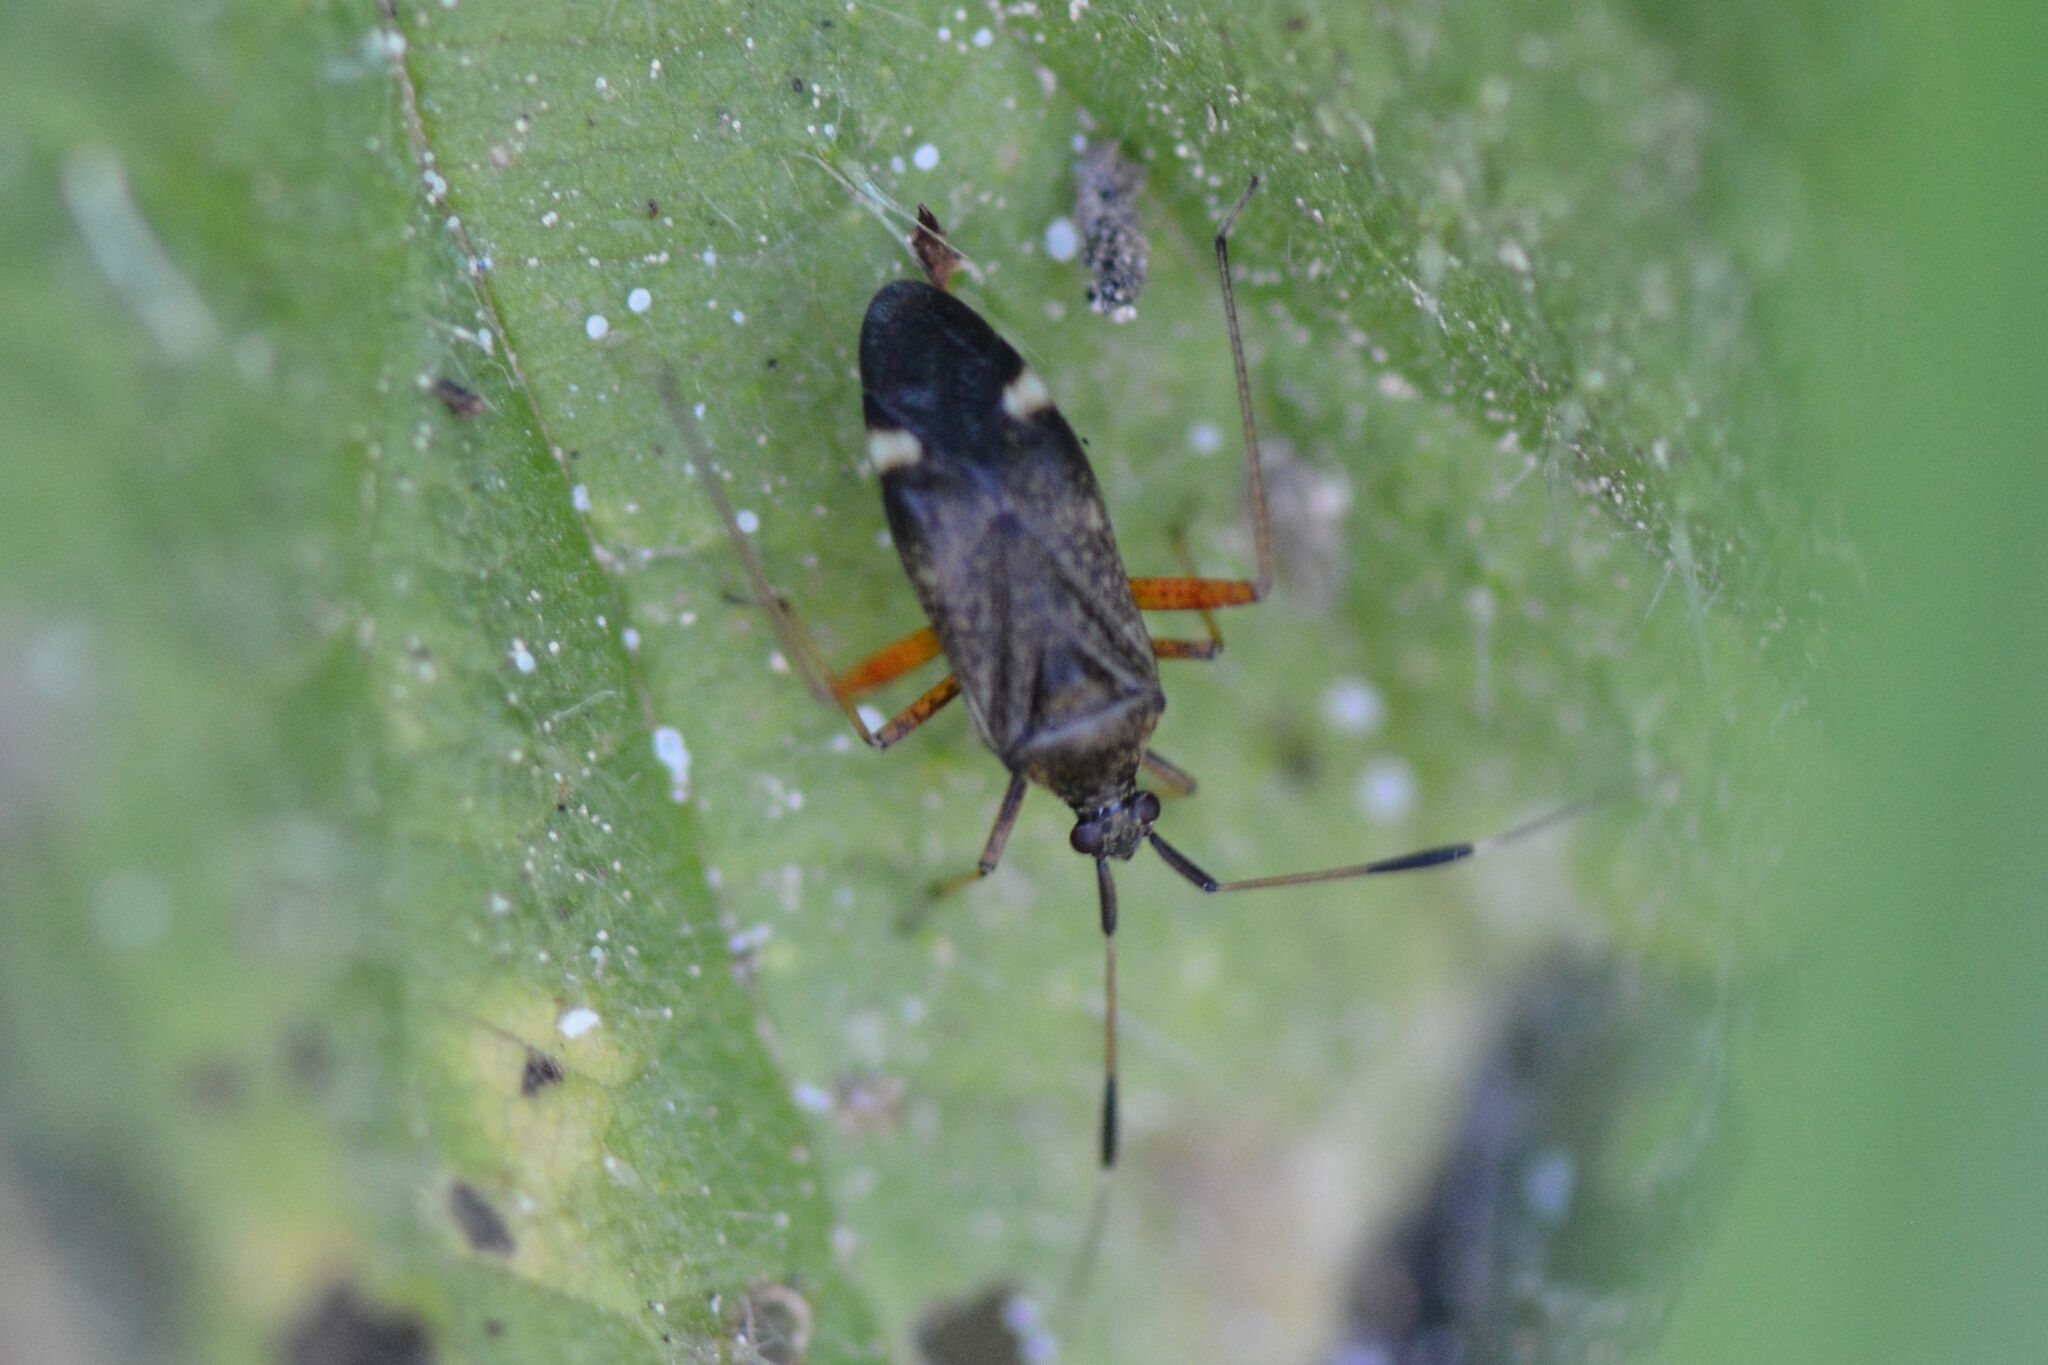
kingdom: Animalia
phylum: Arthropoda
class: Insecta
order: Hemiptera
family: Miridae
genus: Closterotomus
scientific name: Closterotomus biclavatus
